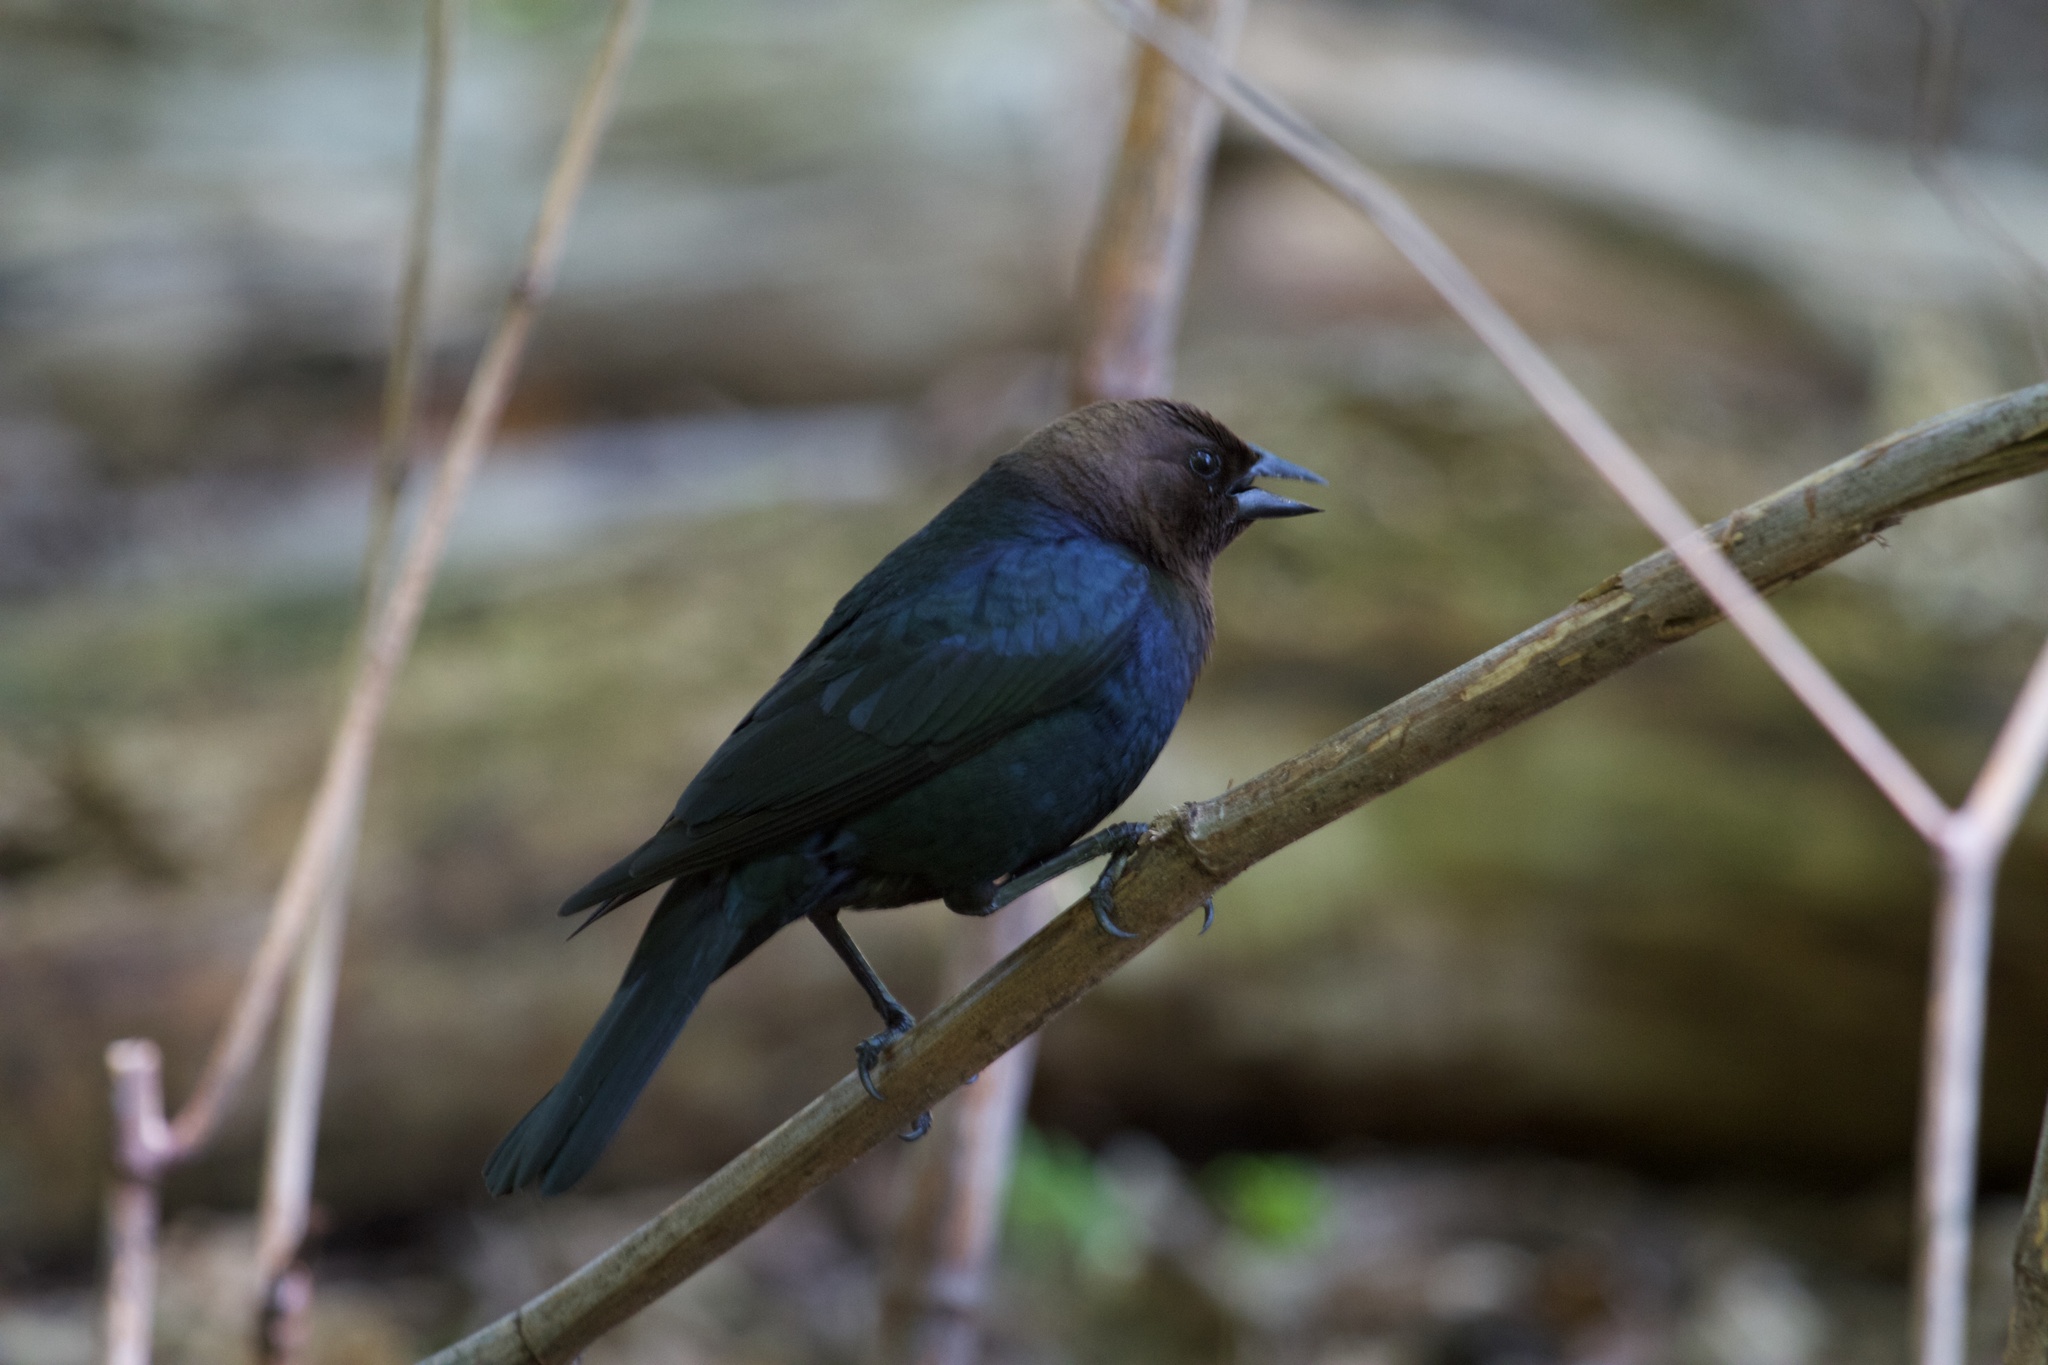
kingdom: Animalia
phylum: Chordata
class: Aves
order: Passeriformes
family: Icteridae
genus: Molothrus
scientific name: Molothrus ater
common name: Brown-headed cowbird
